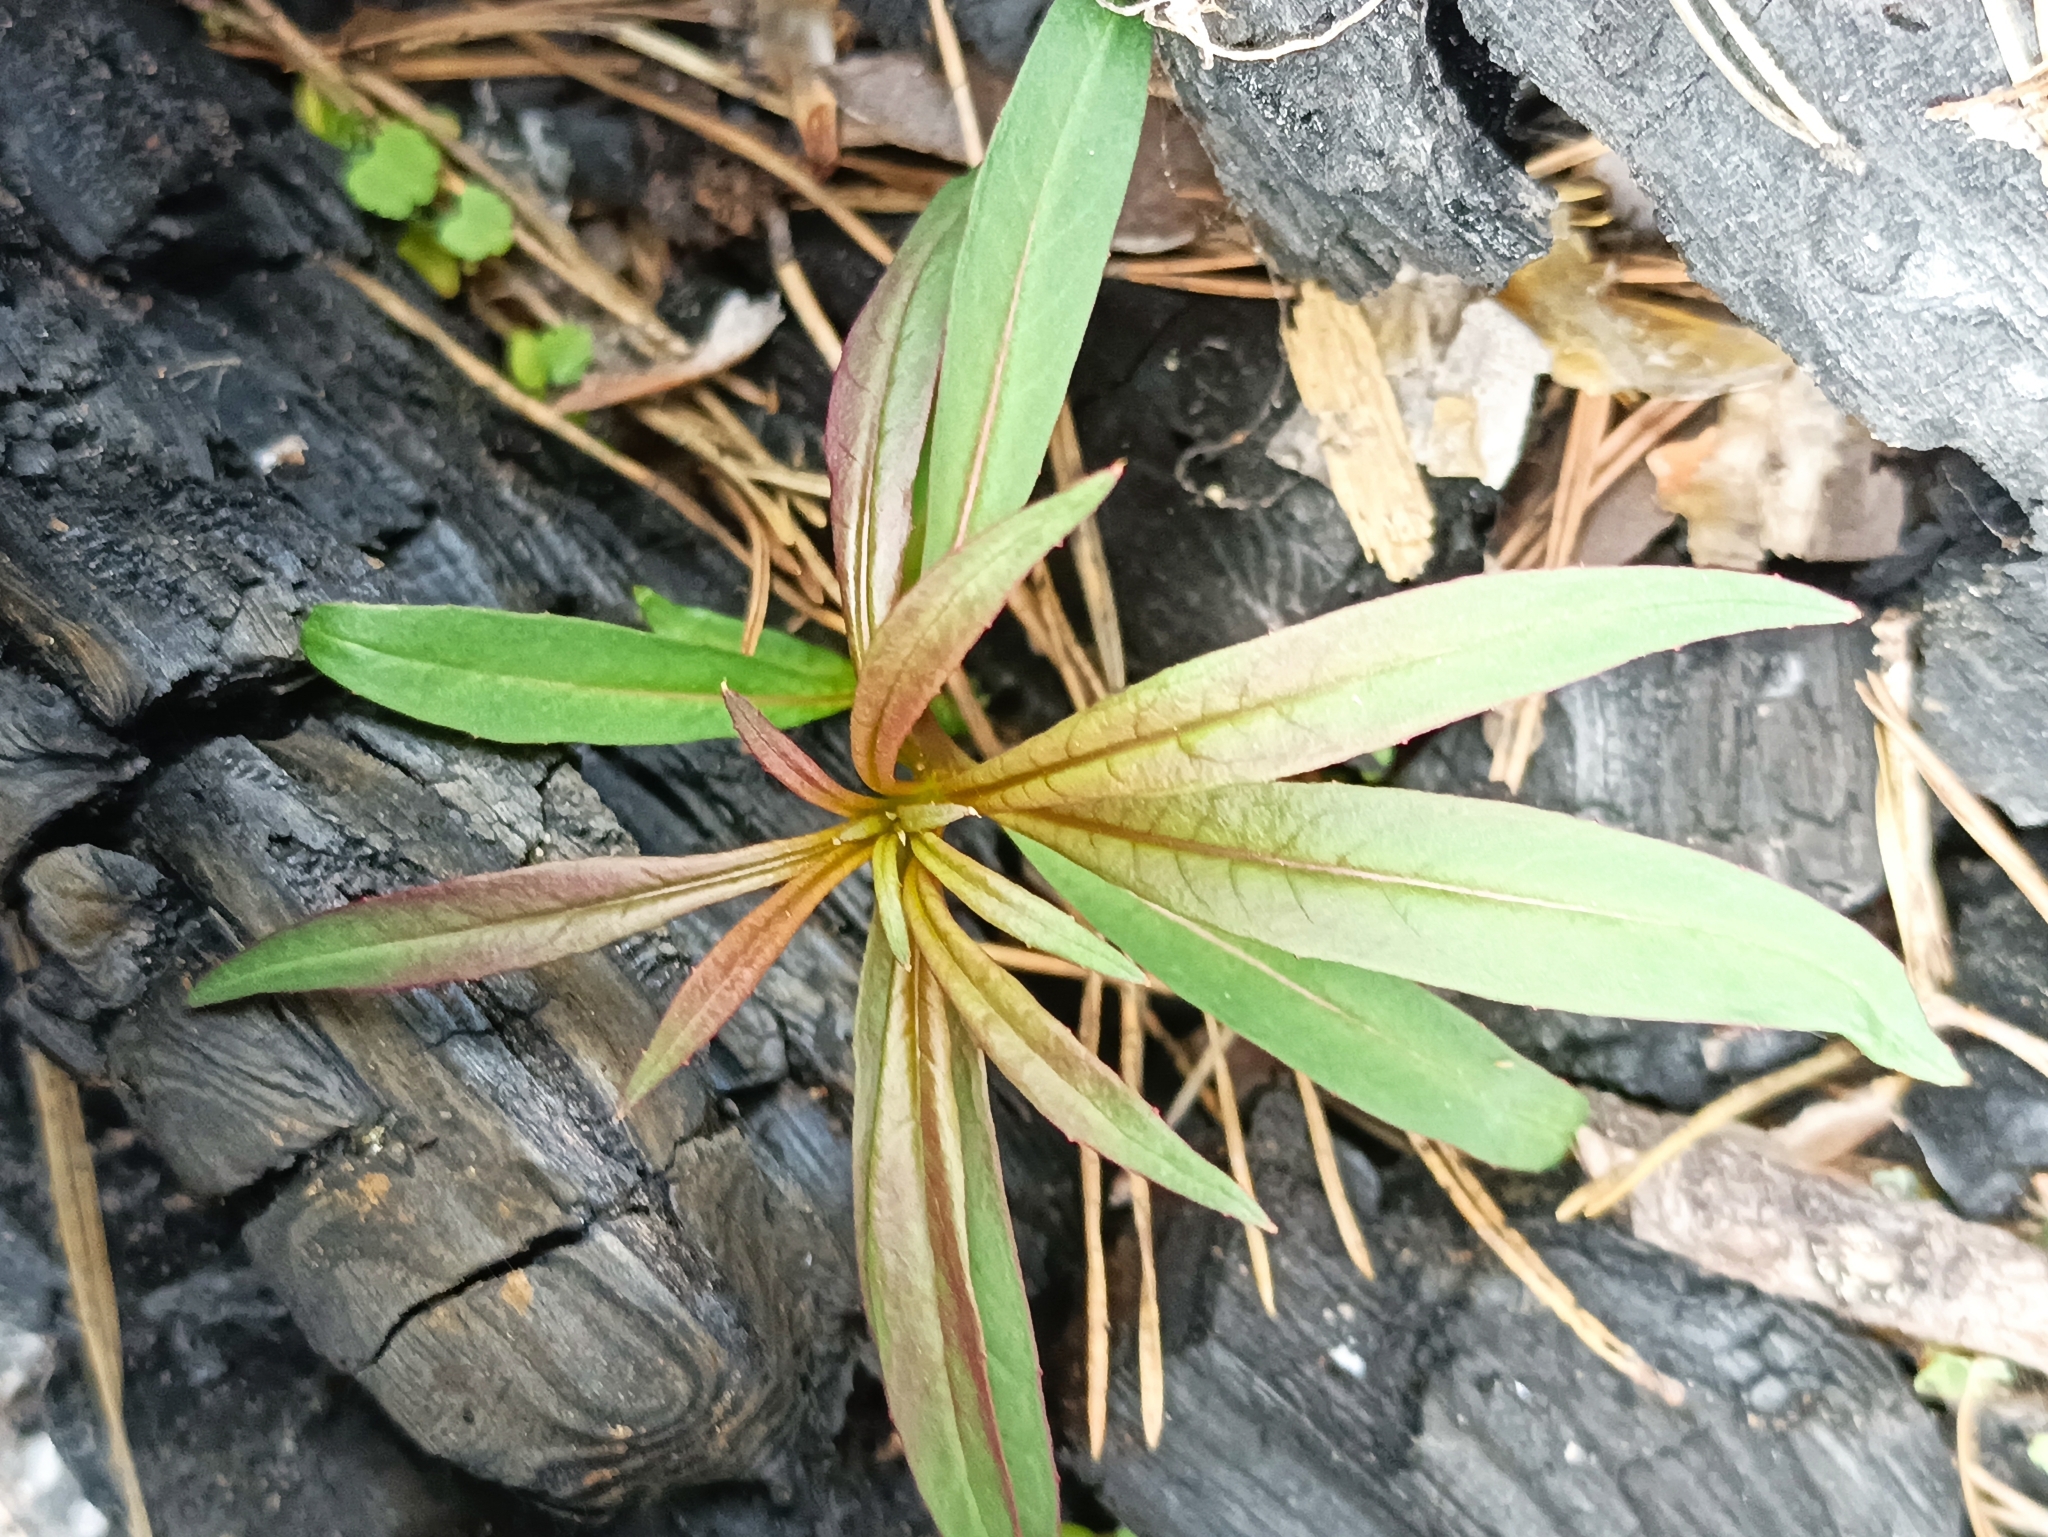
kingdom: Plantae
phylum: Tracheophyta
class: Magnoliopsida
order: Myrtales
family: Onagraceae
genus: Chamaenerion
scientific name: Chamaenerion angustifolium
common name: Fireweed
